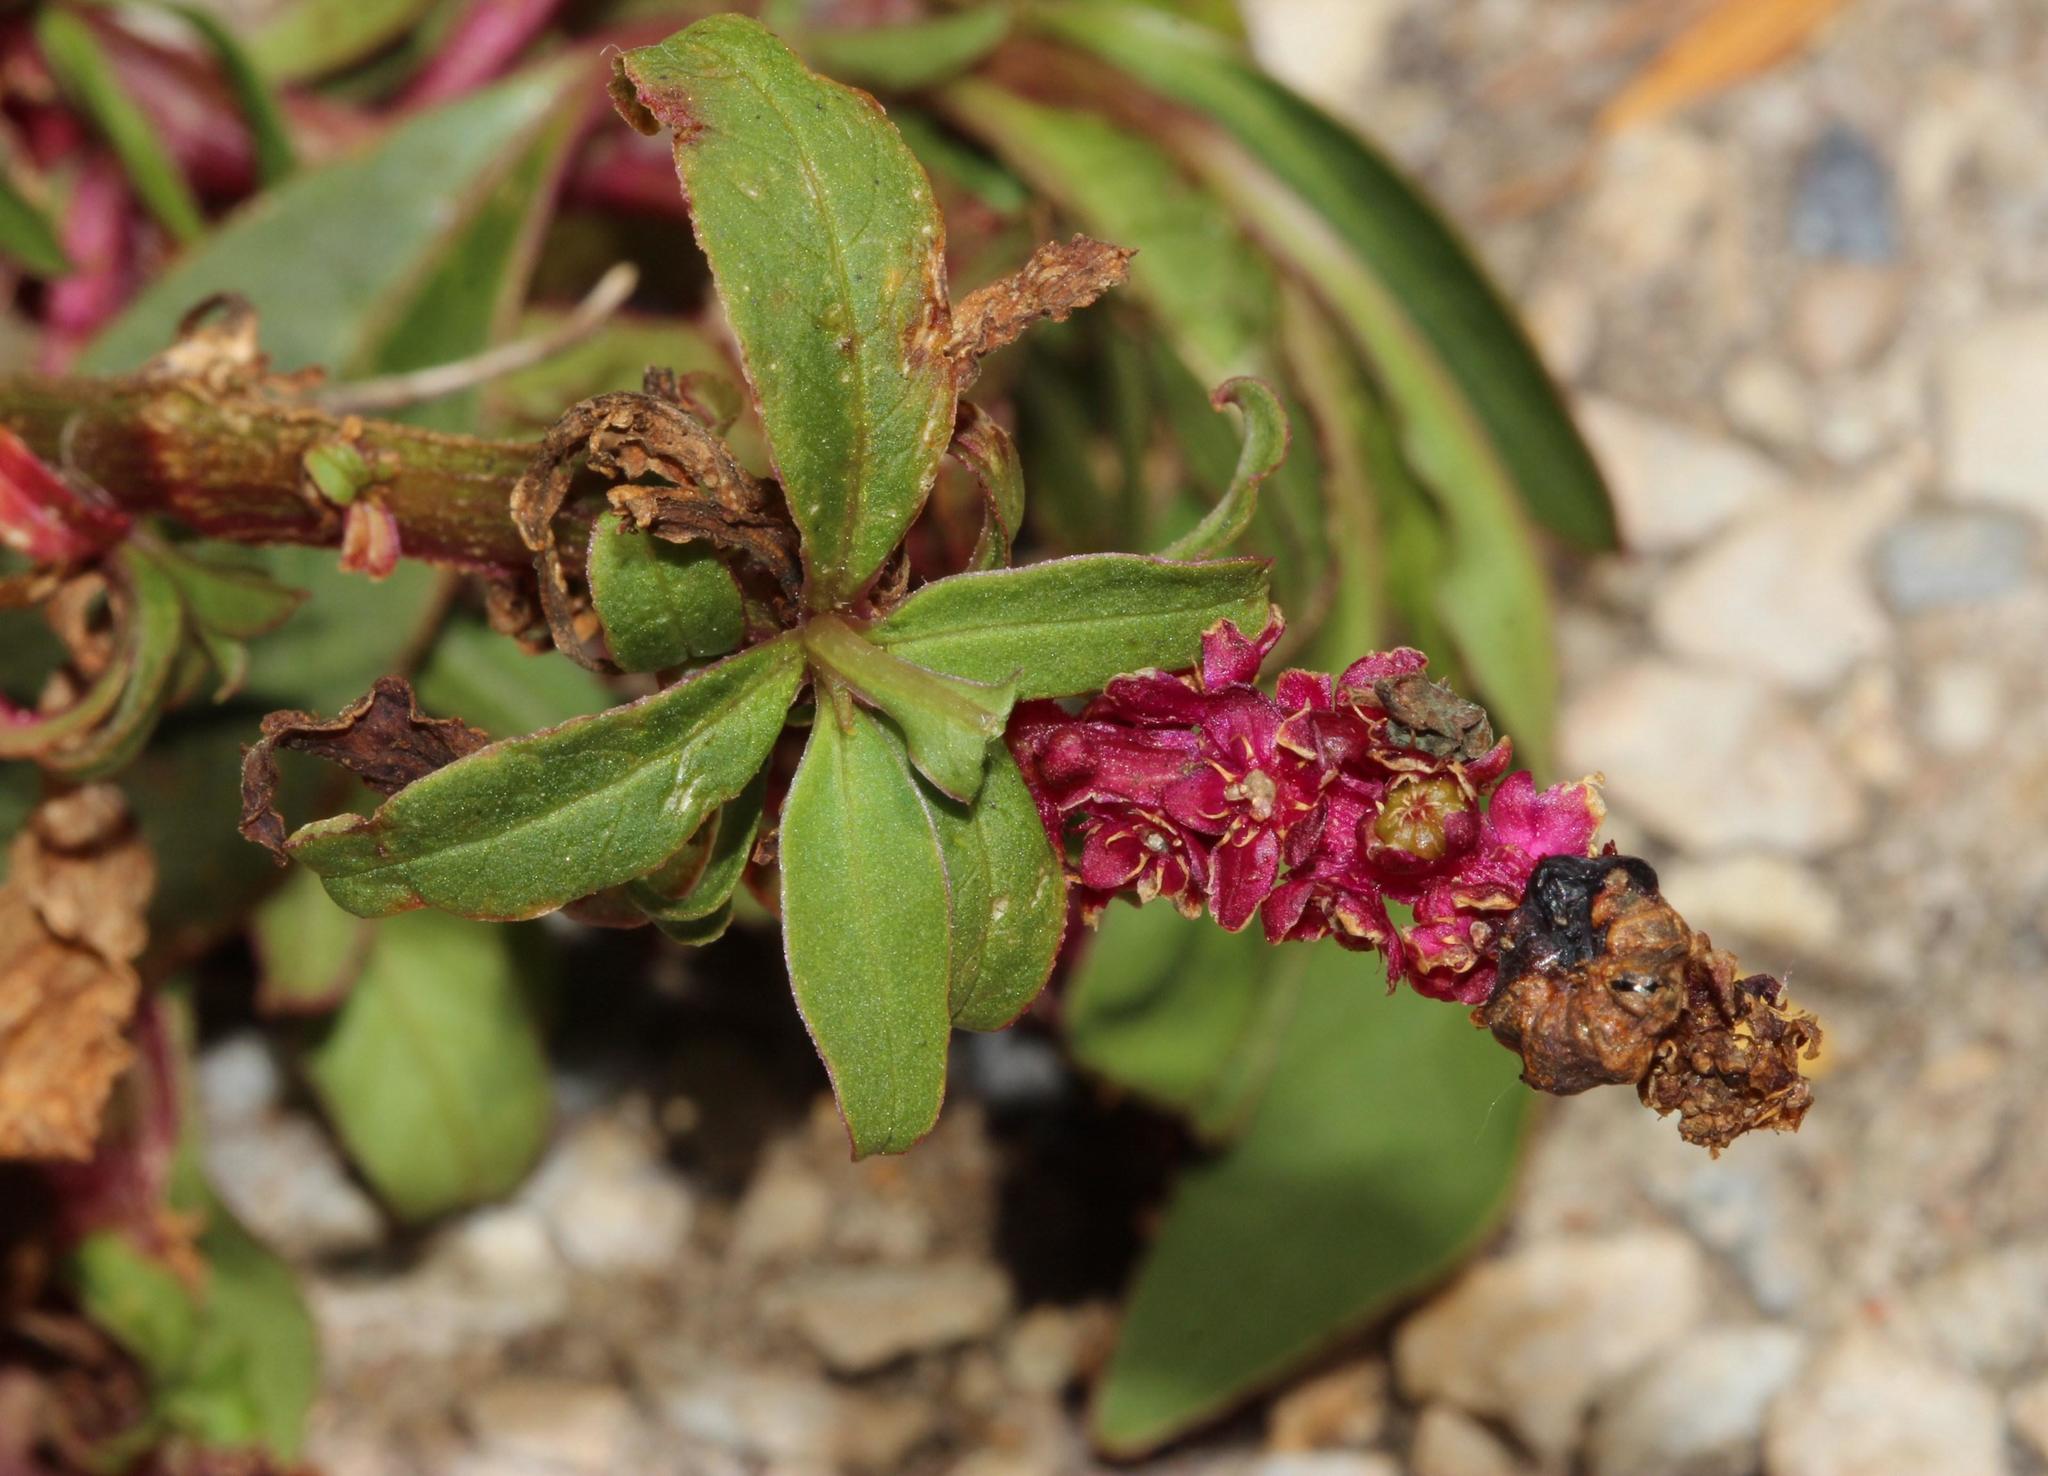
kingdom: Plantae
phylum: Tracheophyta
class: Magnoliopsida
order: Caryophyllales
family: Phytolaccaceae
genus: Phytolacca
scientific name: Phytolacca icosandra
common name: Button pokeweed
